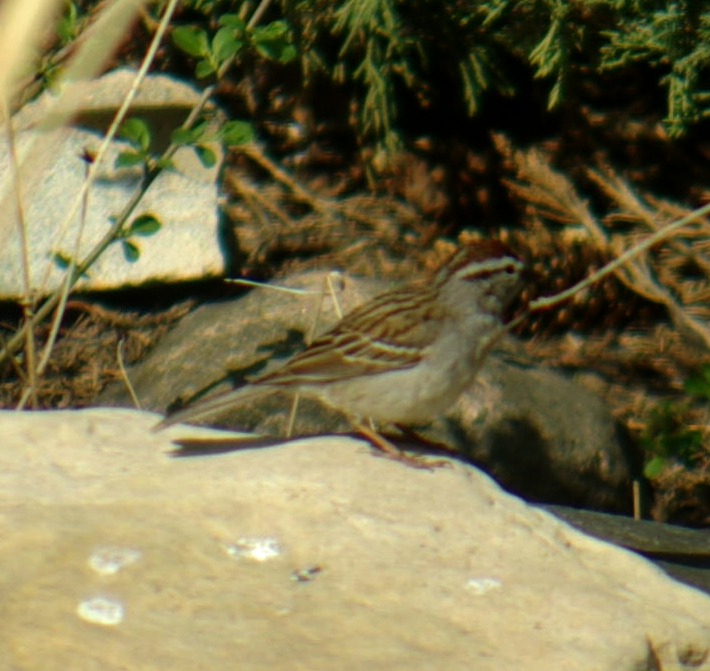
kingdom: Animalia
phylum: Chordata
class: Aves
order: Passeriformes
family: Passerellidae
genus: Spizella
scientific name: Spizella passerina
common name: Chipping sparrow
